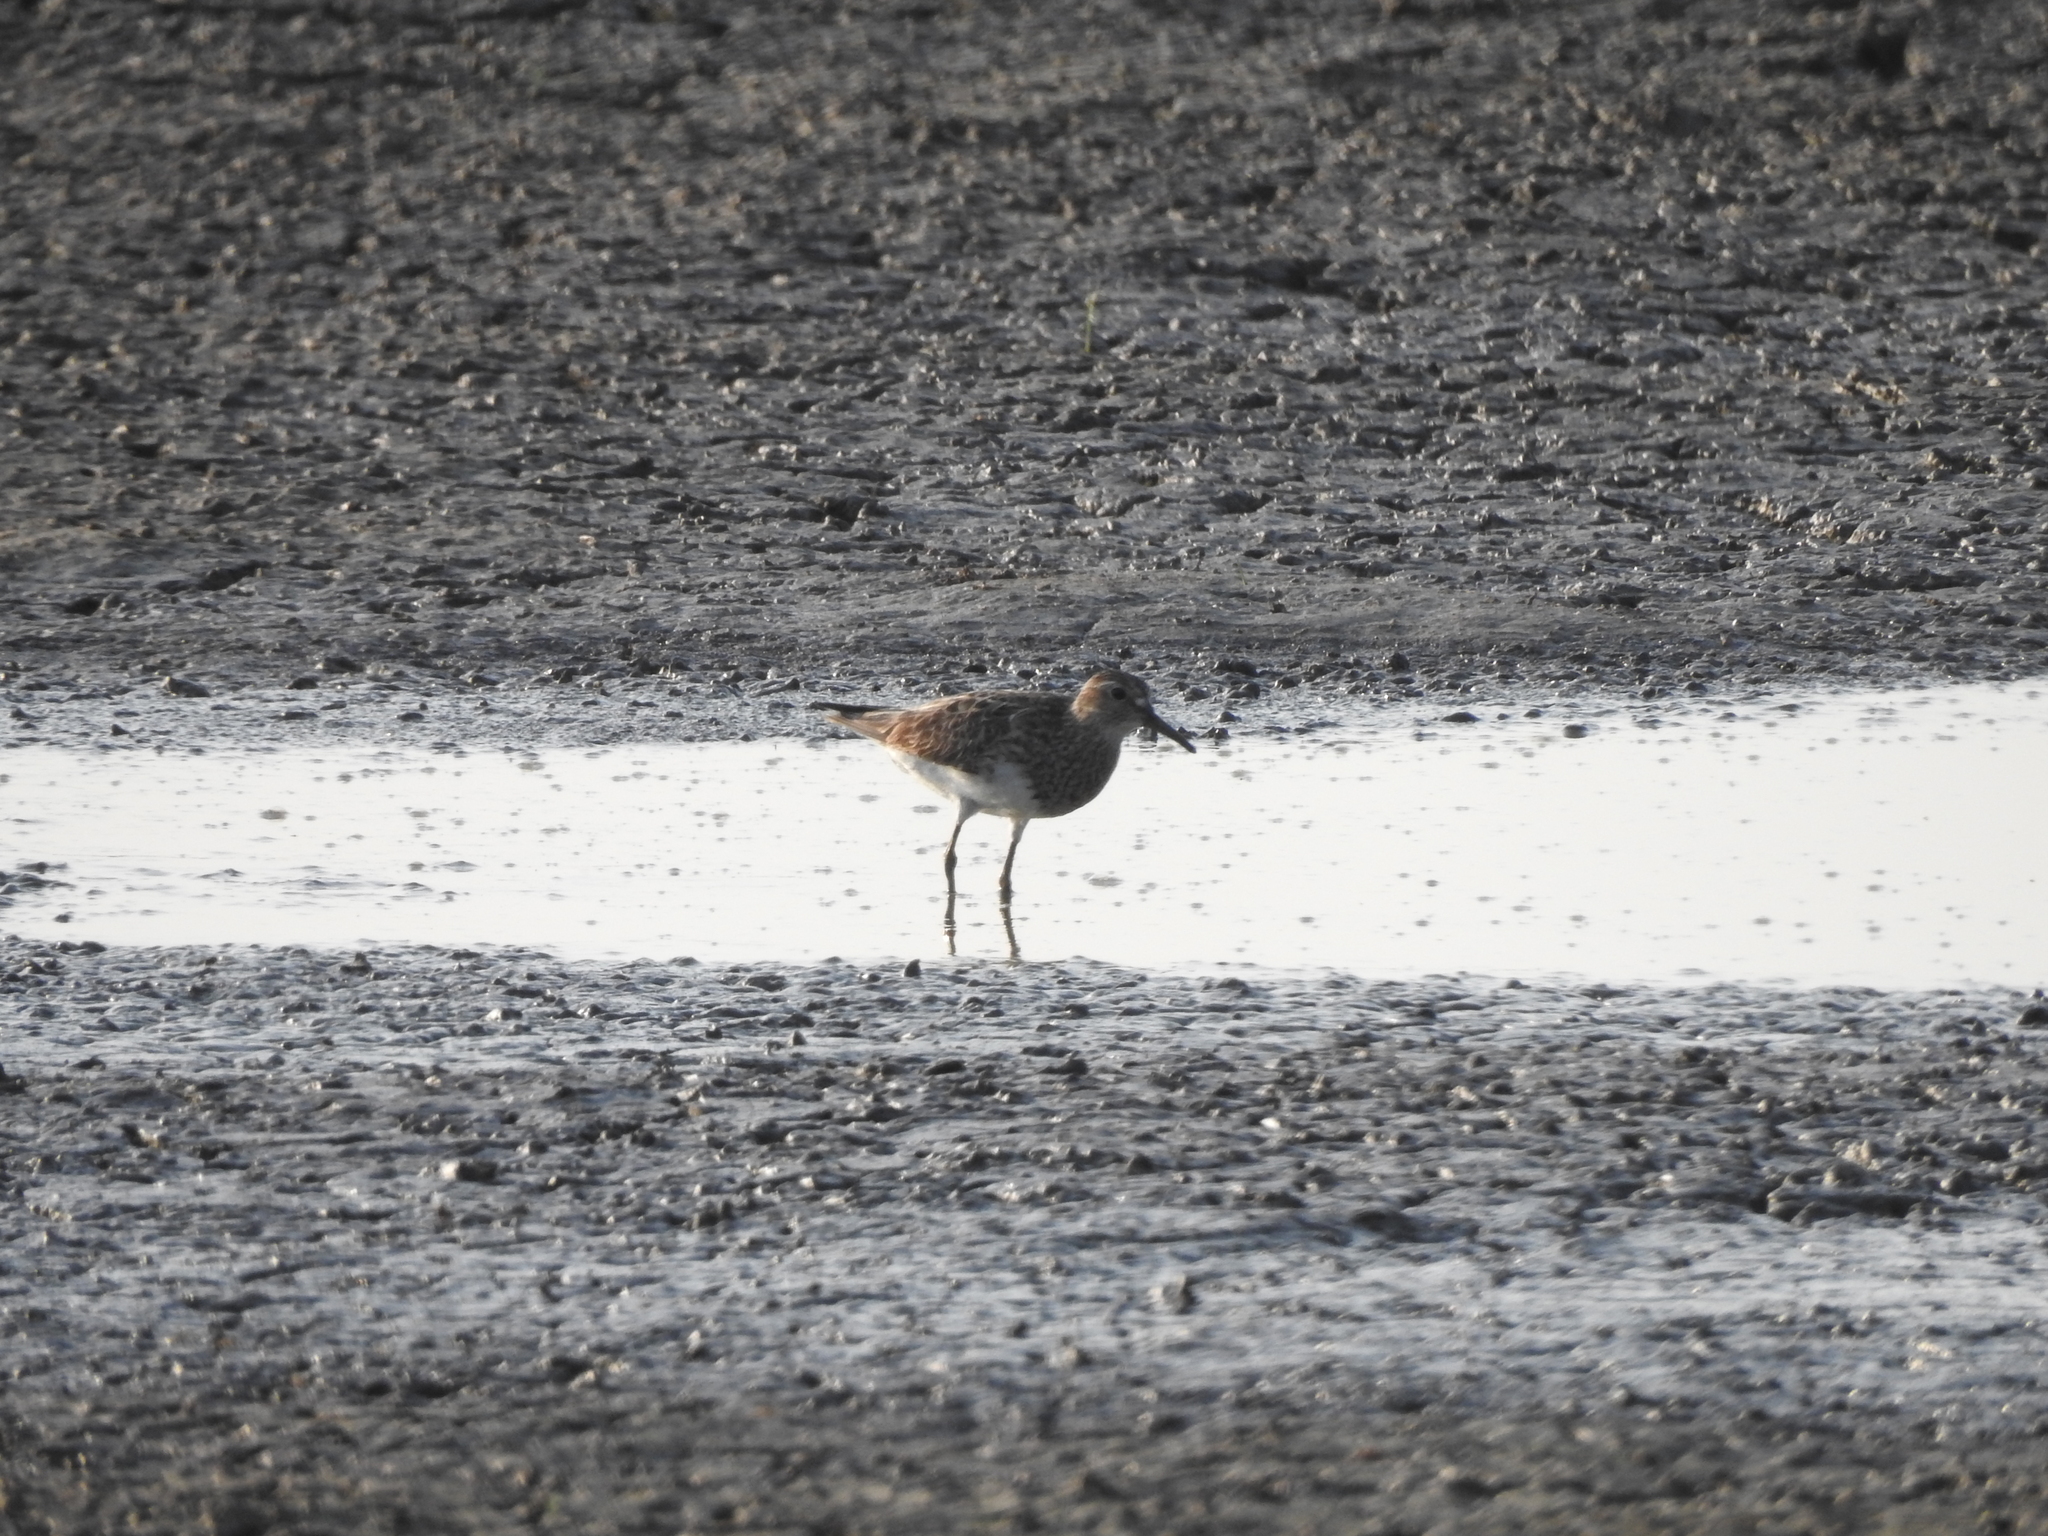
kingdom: Animalia
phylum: Chordata
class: Aves
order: Charadriiformes
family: Scolopacidae
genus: Calidris
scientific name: Calidris melanotos
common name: Pectoral sandpiper
